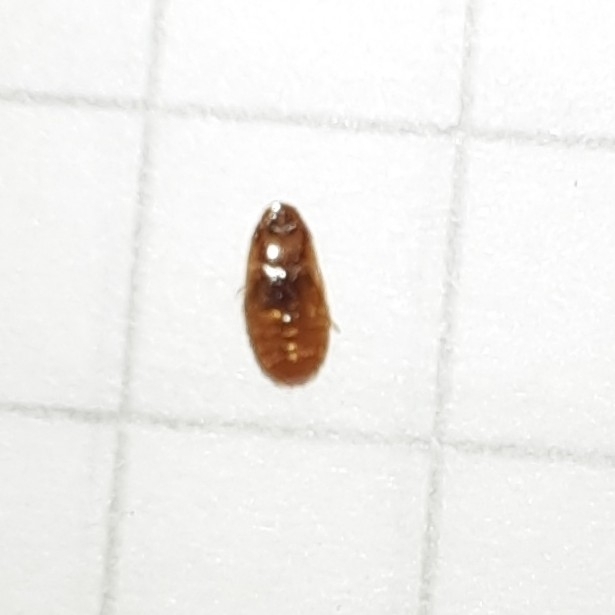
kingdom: Animalia
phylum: Arthropoda
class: Insecta
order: Coleoptera
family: Leiodidae
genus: Platypsyllus
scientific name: Platypsyllus castoris
